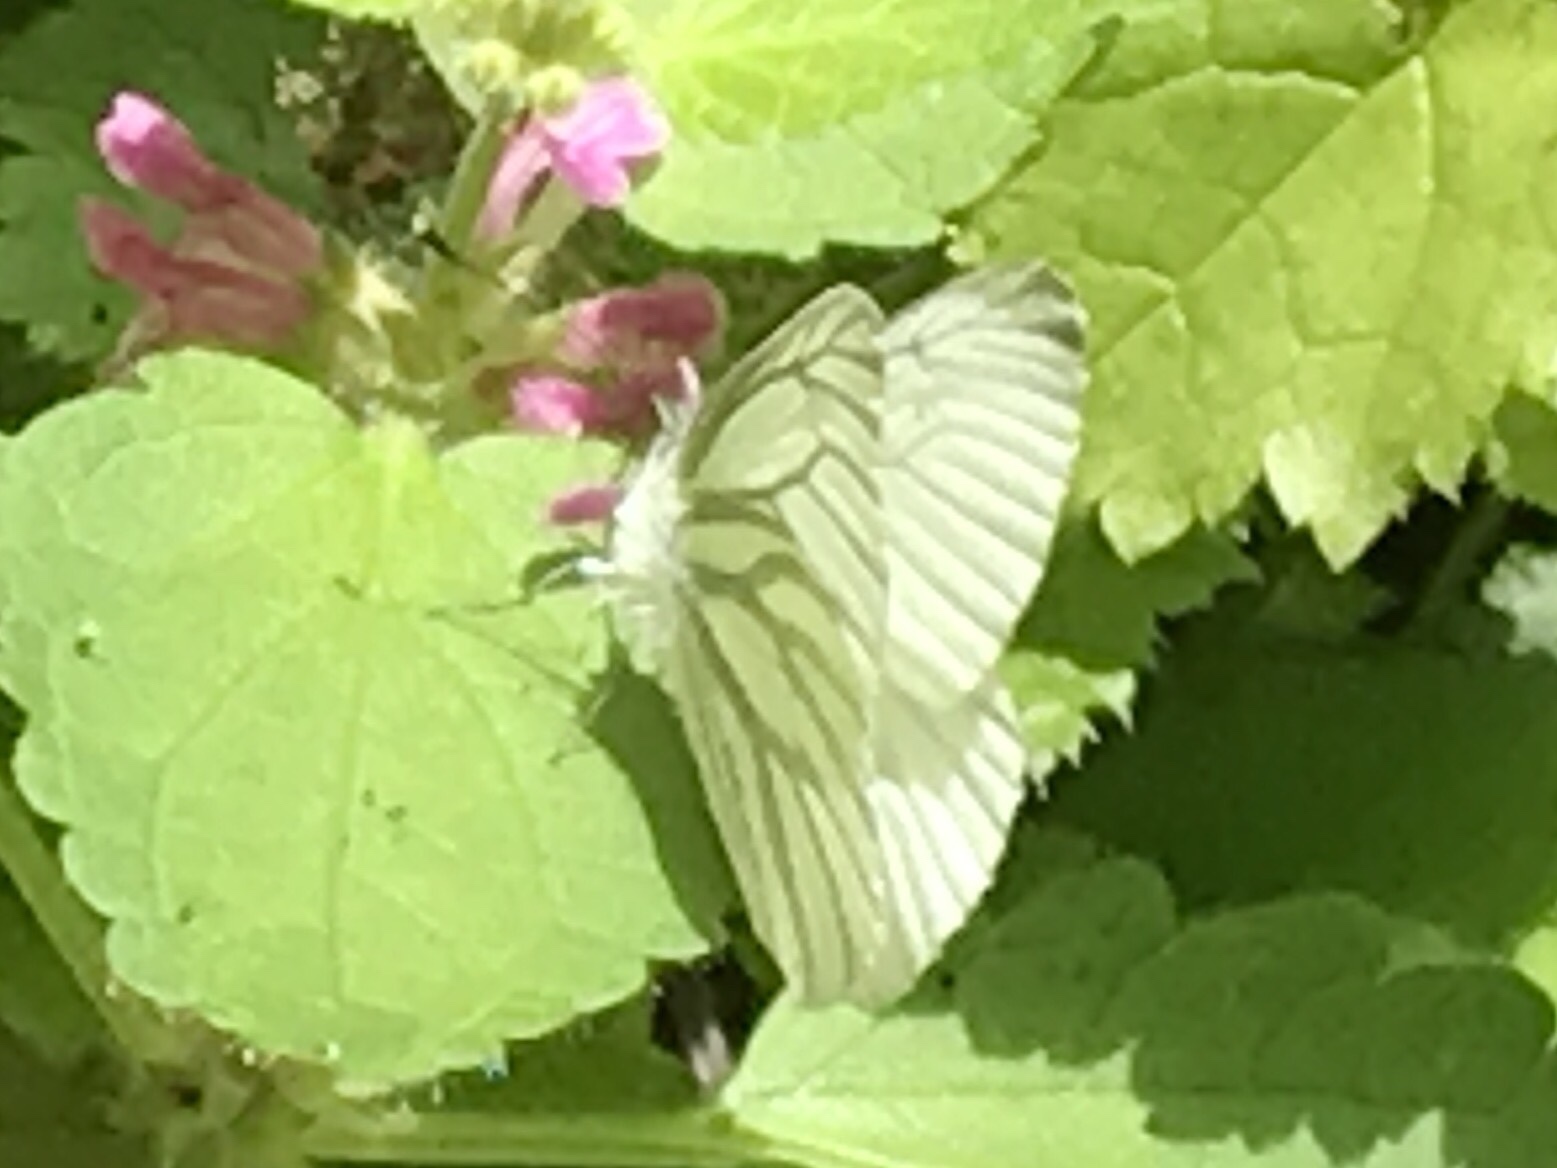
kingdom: Animalia
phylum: Arthropoda
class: Insecta
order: Lepidoptera
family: Pieridae
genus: Pieris
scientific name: Pieris marginalis
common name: Margined white
